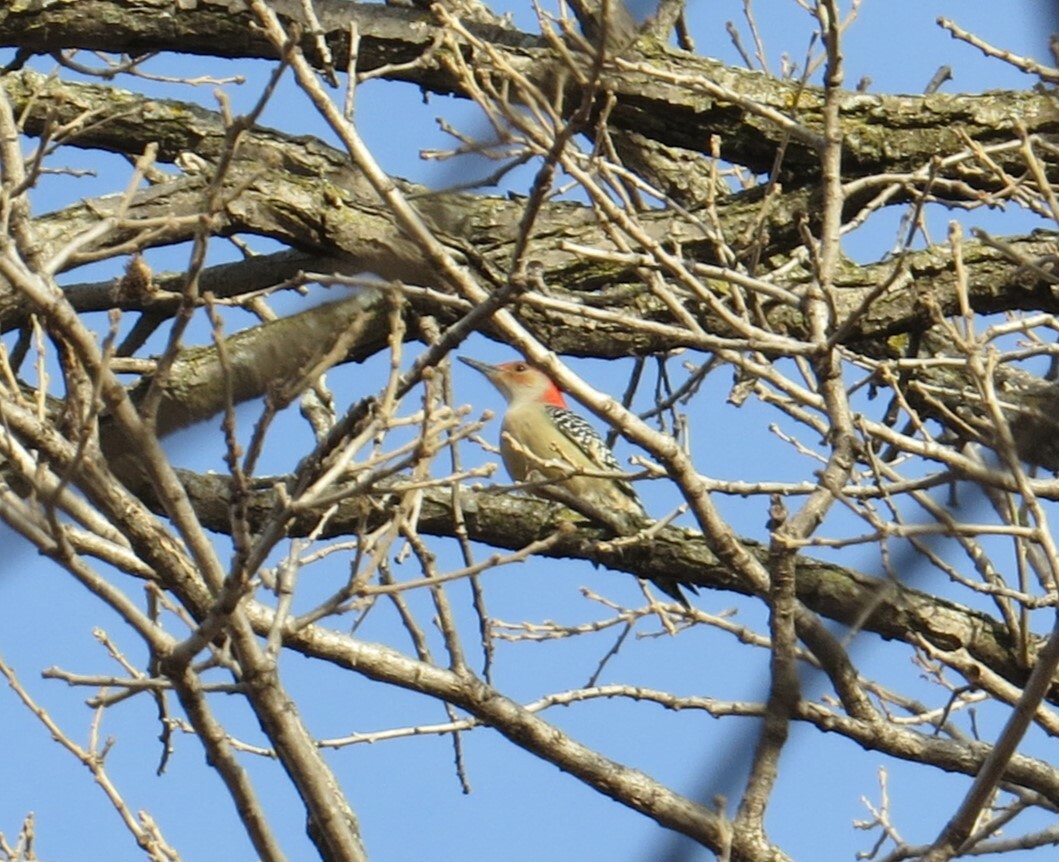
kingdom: Animalia
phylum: Chordata
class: Aves
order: Piciformes
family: Picidae
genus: Melanerpes
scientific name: Melanerpes carolinus
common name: Red-bellied woodpecker
